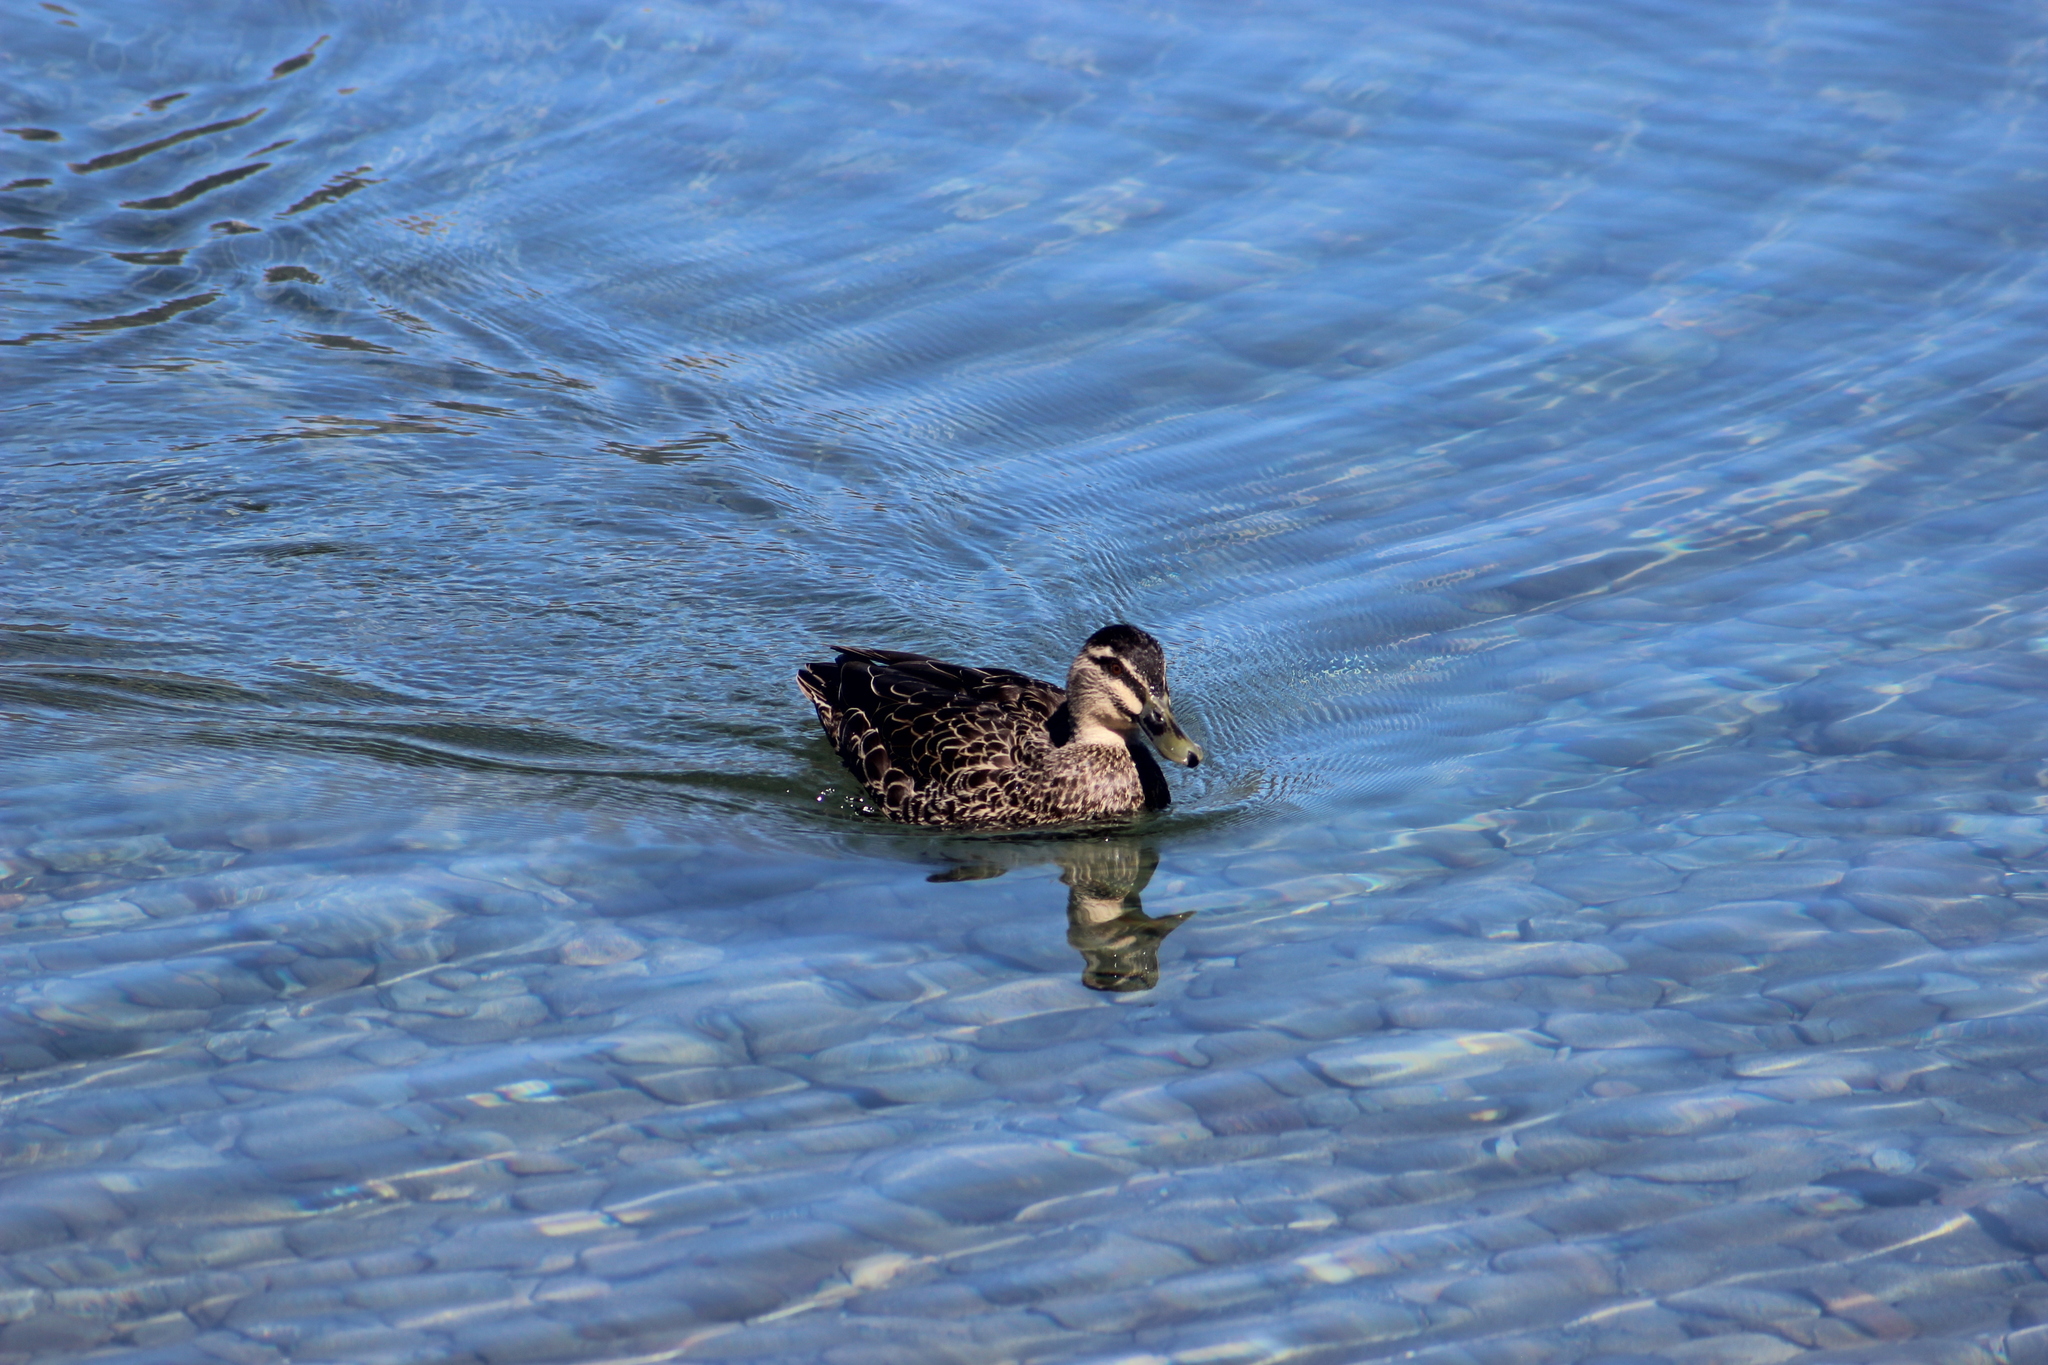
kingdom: Animalia
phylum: Chordata
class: Aves
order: Anseriformes
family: Anatidae
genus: Anas
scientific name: Anas
